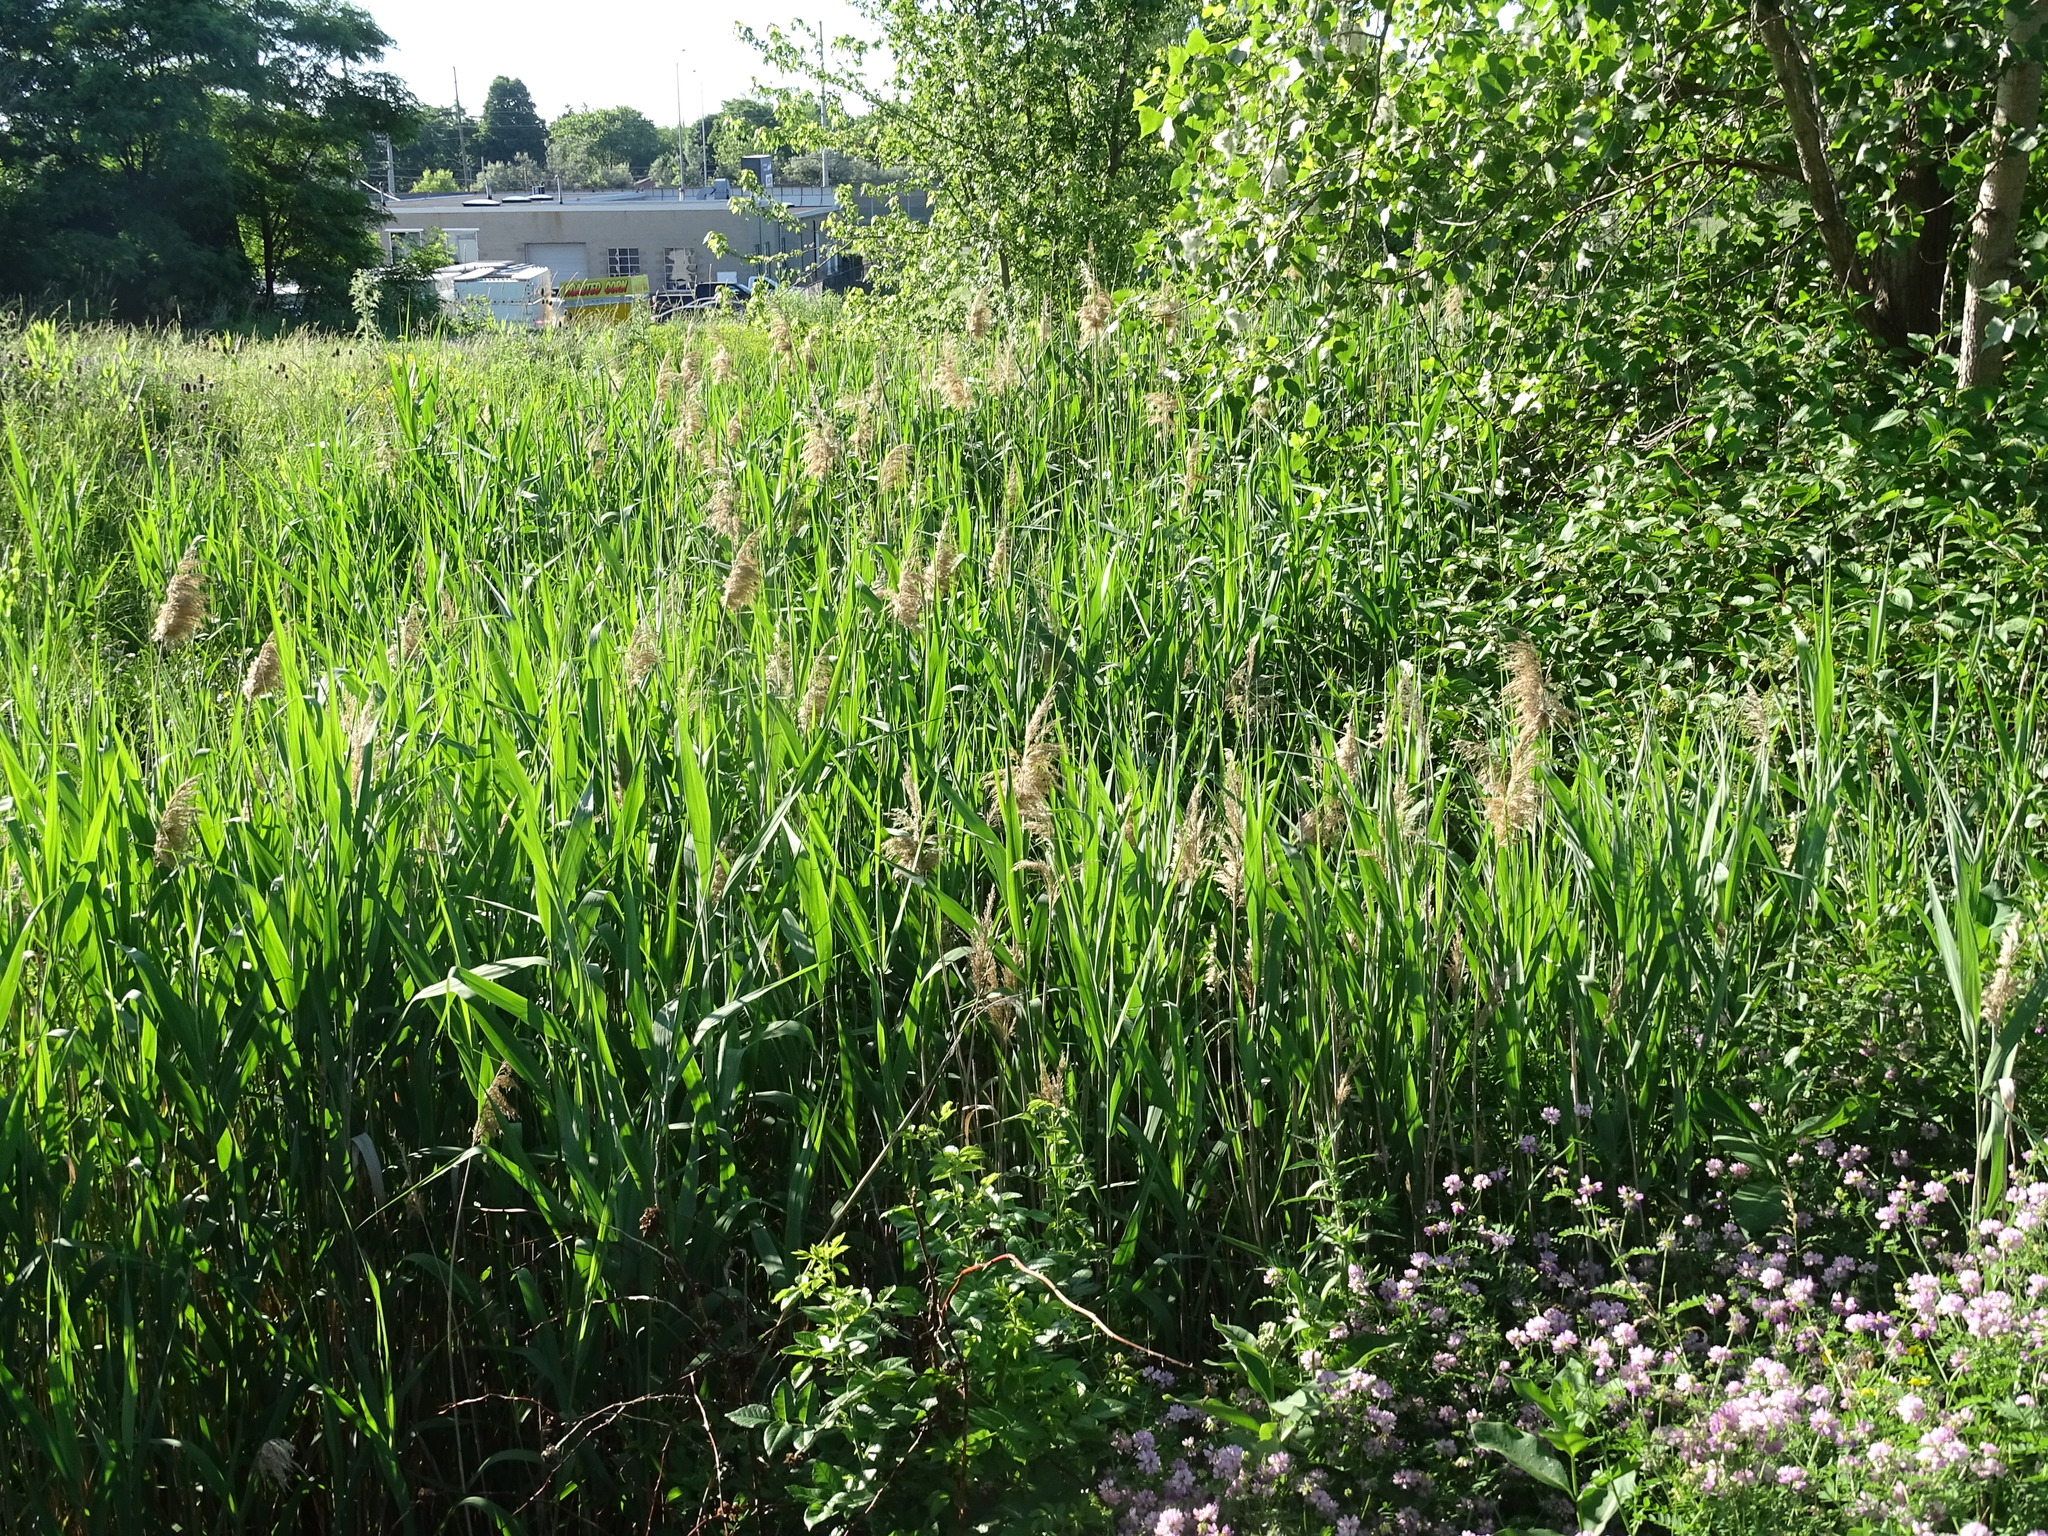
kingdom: Plantae
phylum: Tracheophyta
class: Liliopsida
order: Poales
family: Poaceae
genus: Phragmites
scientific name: Phragmites australis
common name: Common reed
